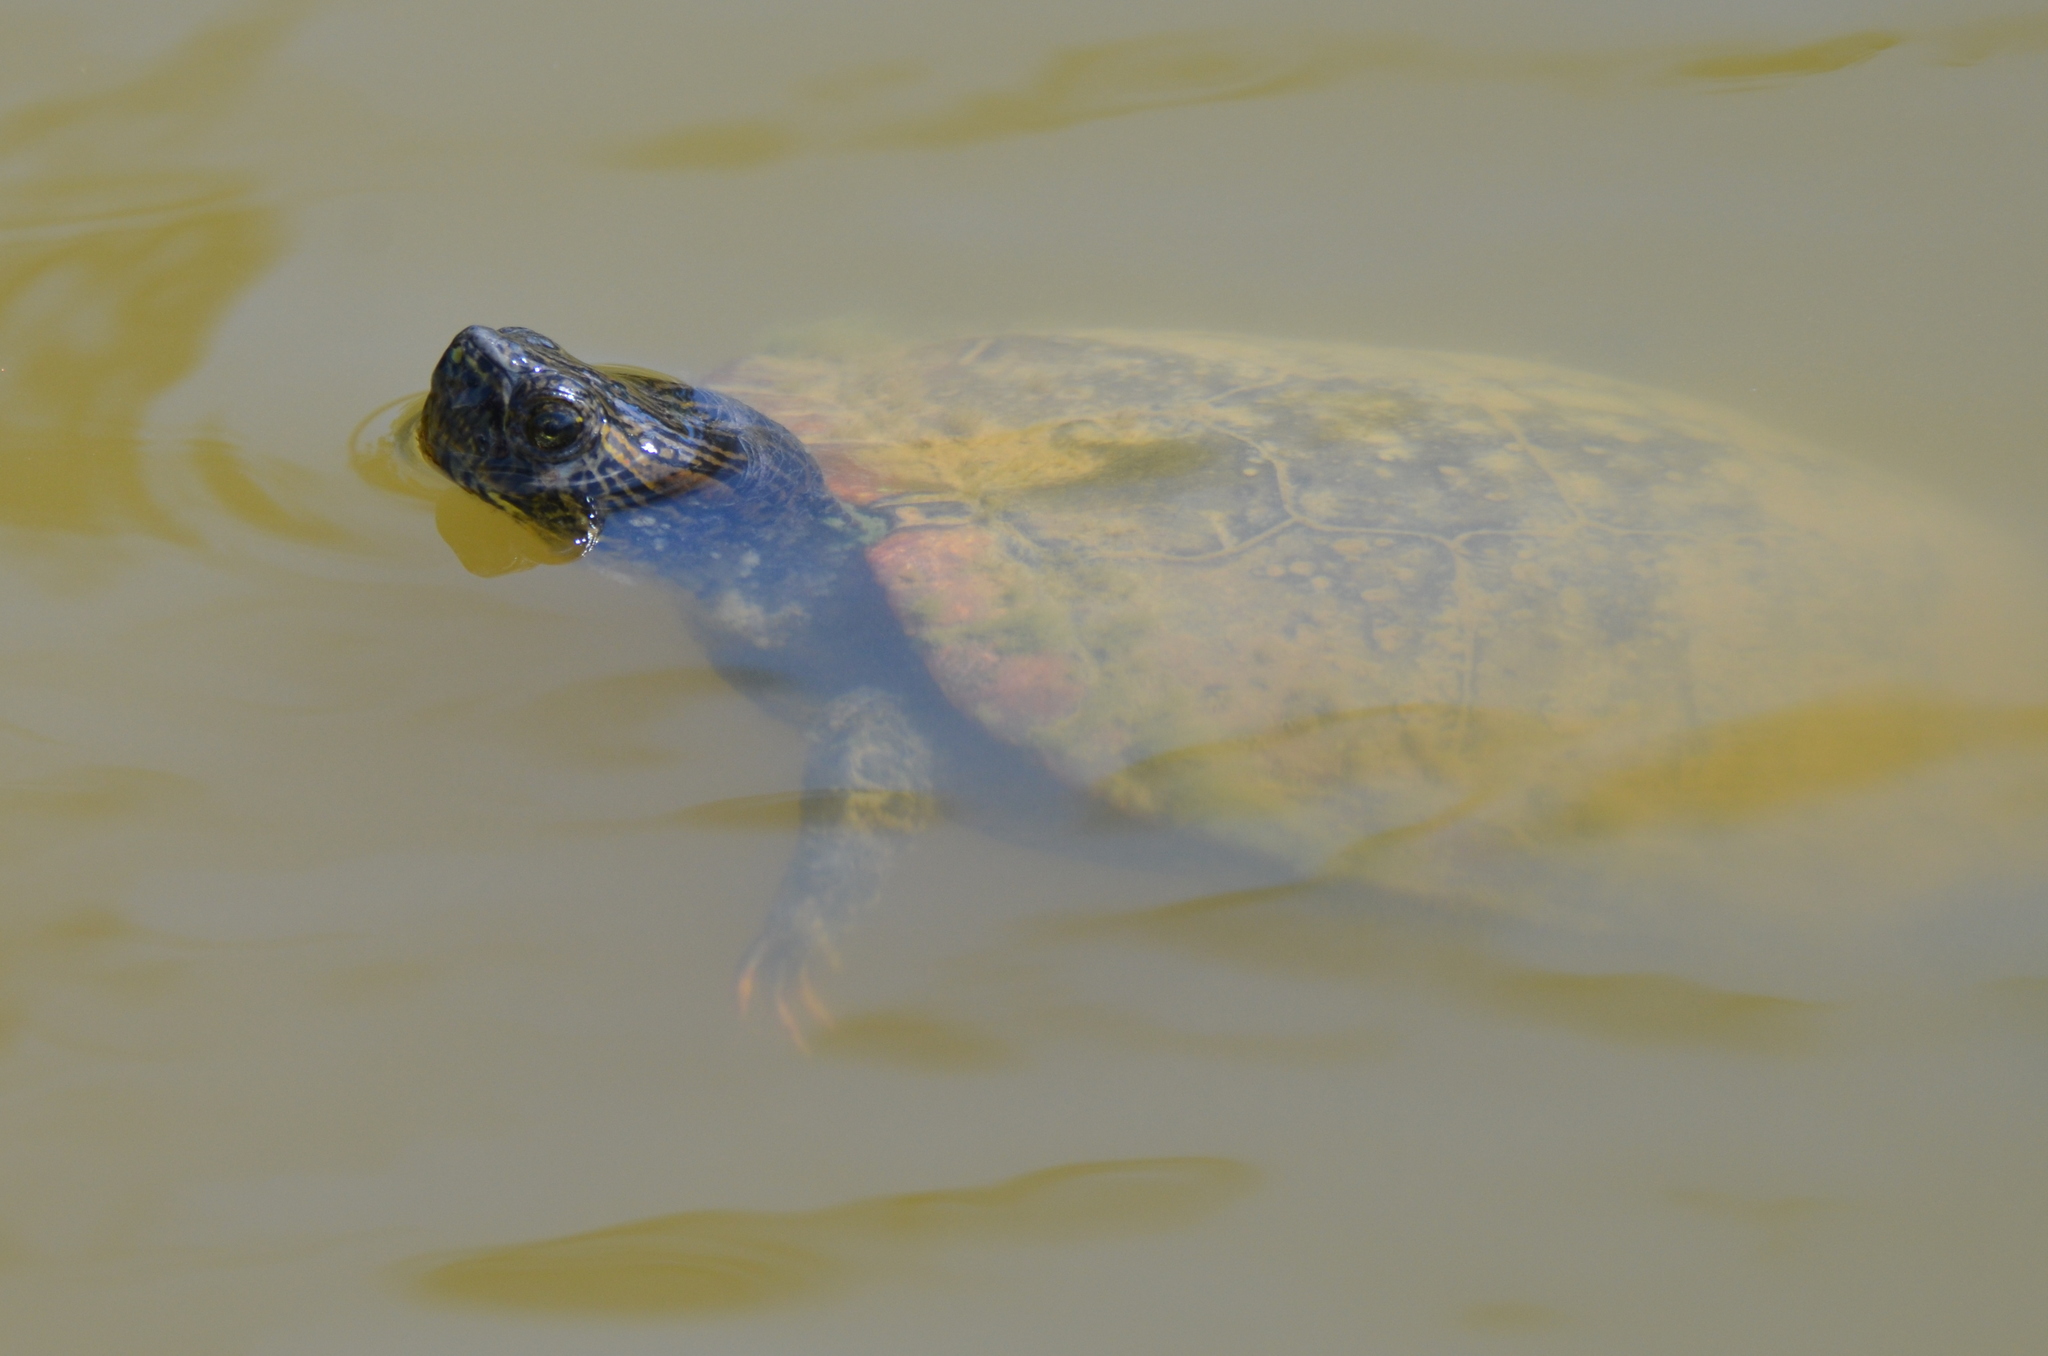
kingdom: Animalia
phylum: Chordata
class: Testudines
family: Emydidae
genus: Trachemys
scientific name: Trachemys scripta
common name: Slider
